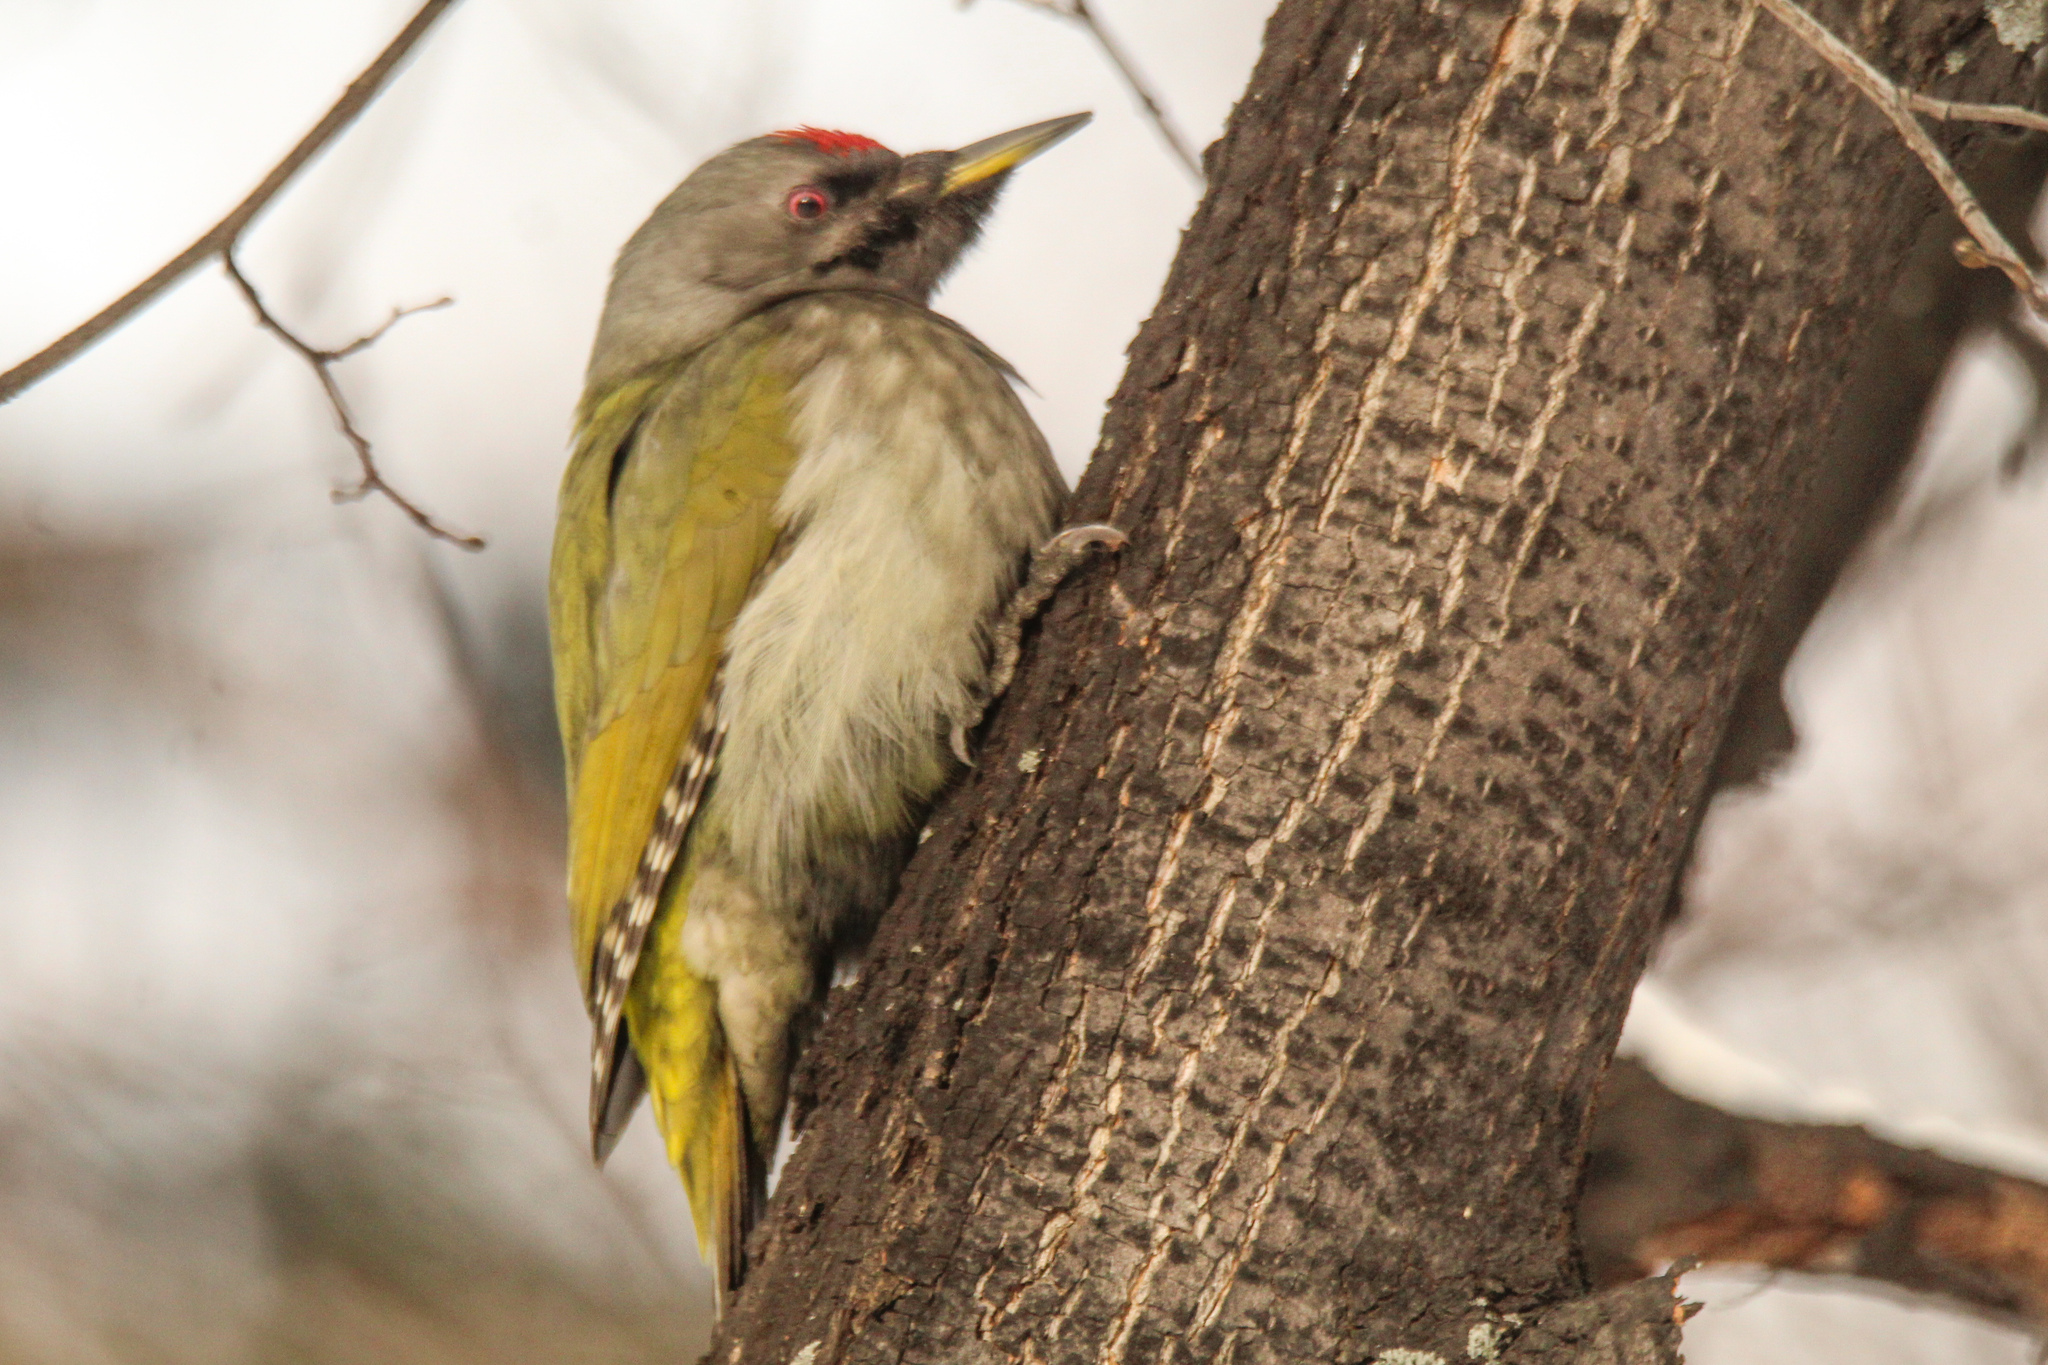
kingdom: Animalia
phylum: Chordata
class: Aves
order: Piciformes
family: Picidae
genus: Picus
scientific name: Picus canus
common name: Grey-headed woodpecker
